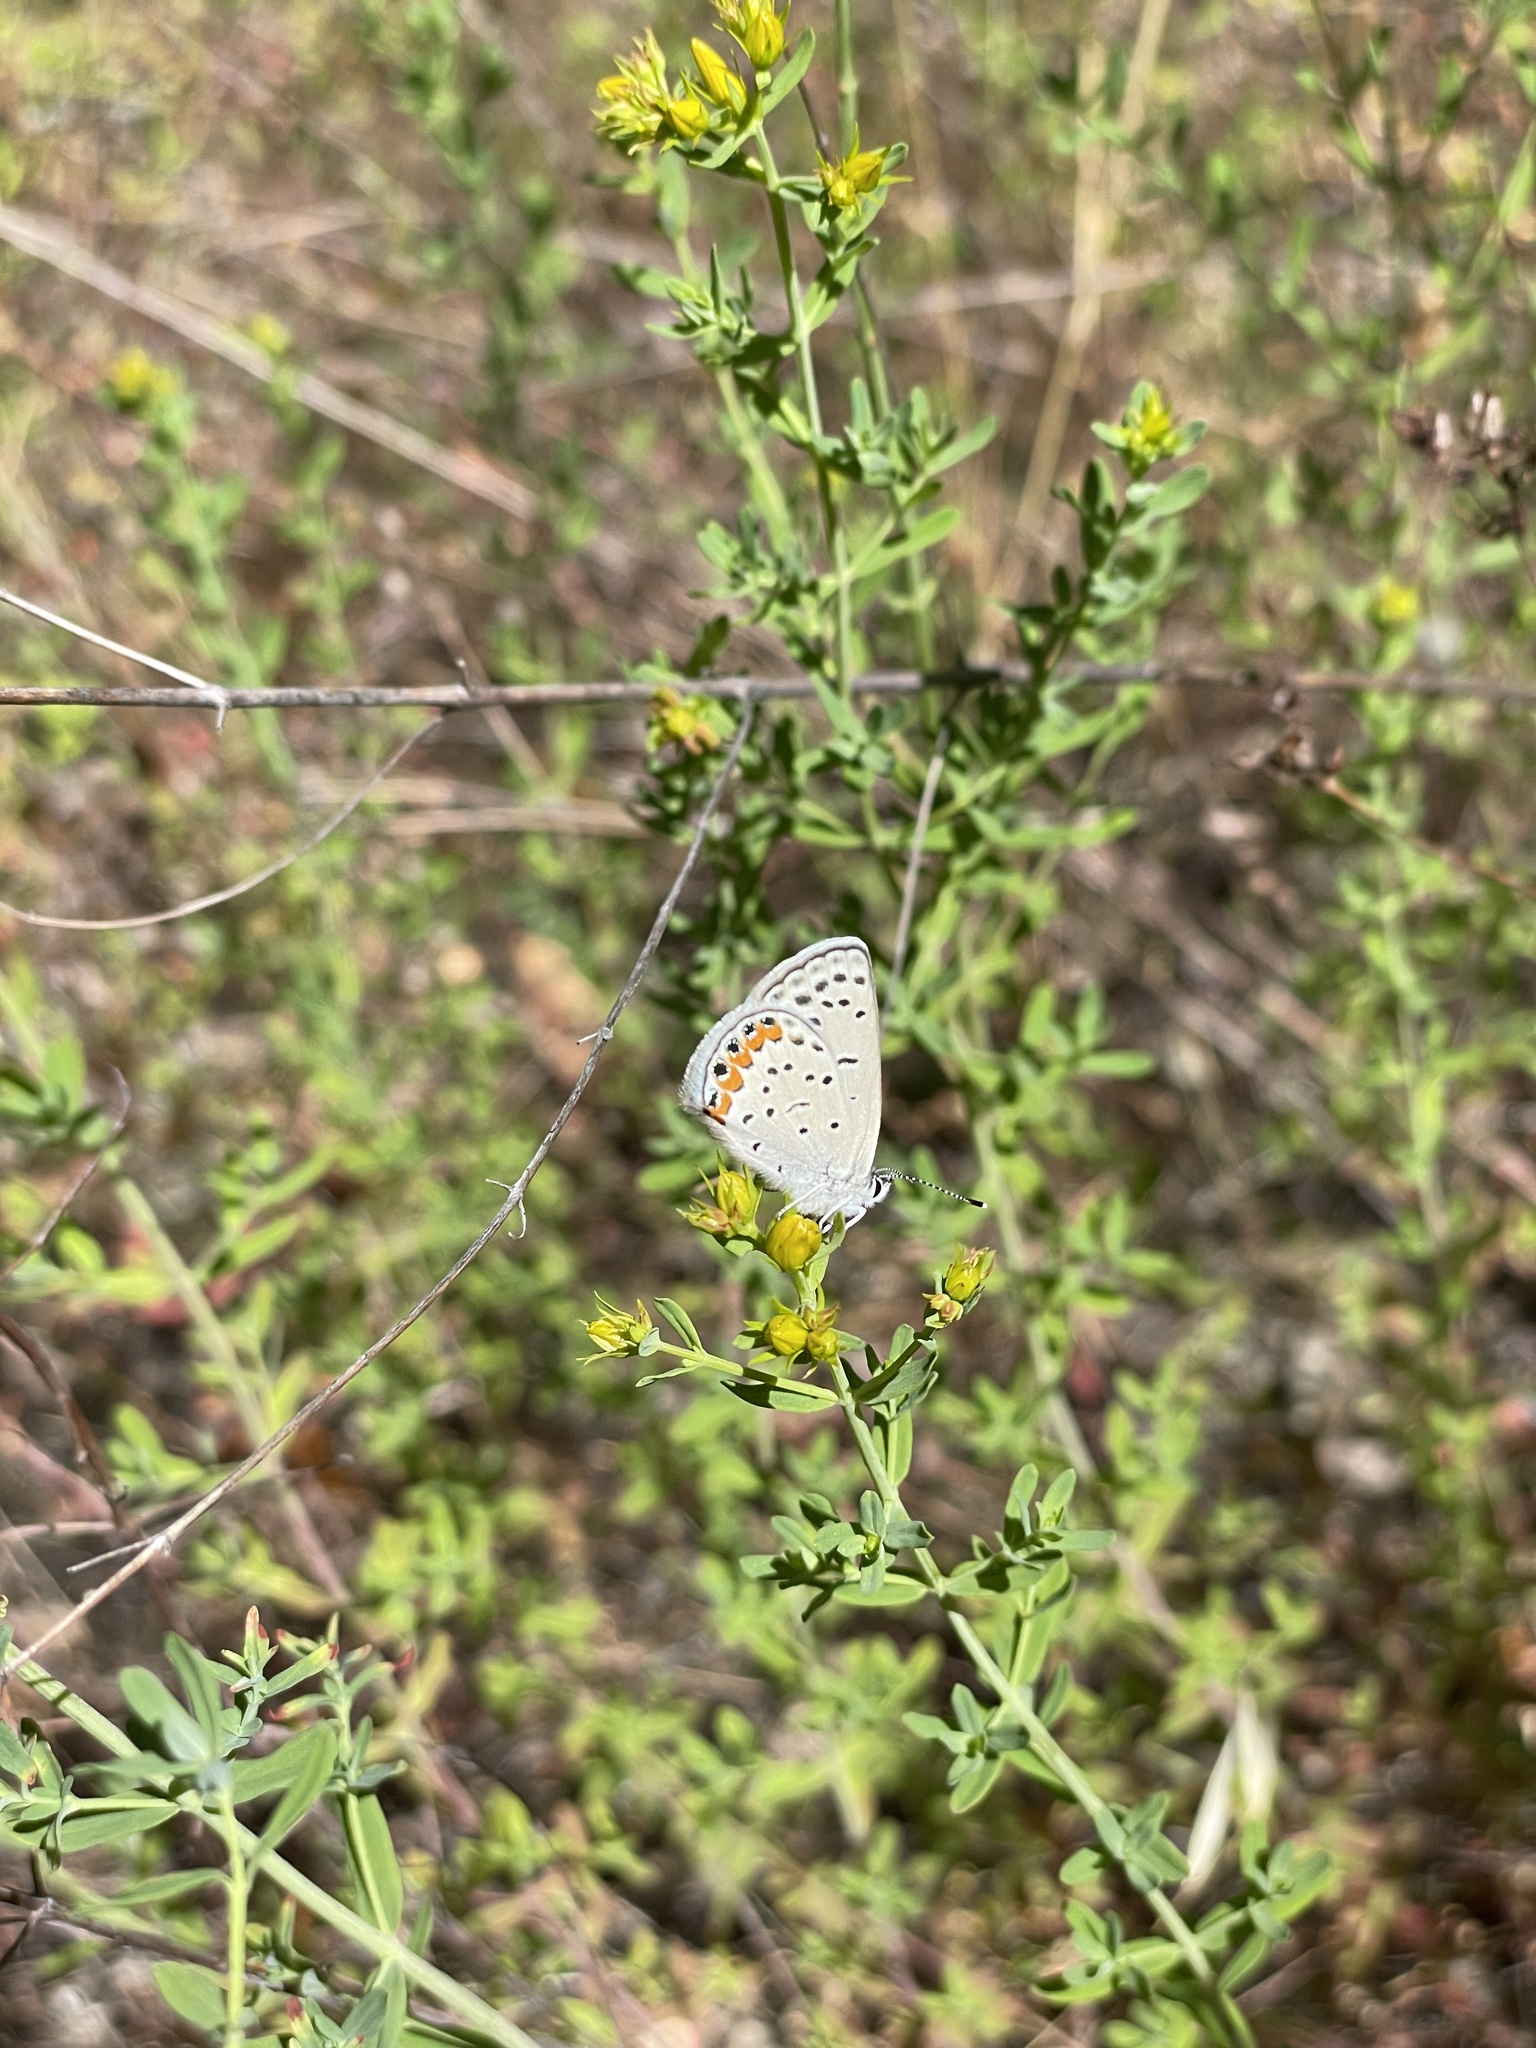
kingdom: Animalia
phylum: Arthropoda
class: Insecta
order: Lepidoptera
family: Lycaenidae
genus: Icaricia
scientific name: Icaricia acmon
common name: Acmon blue
